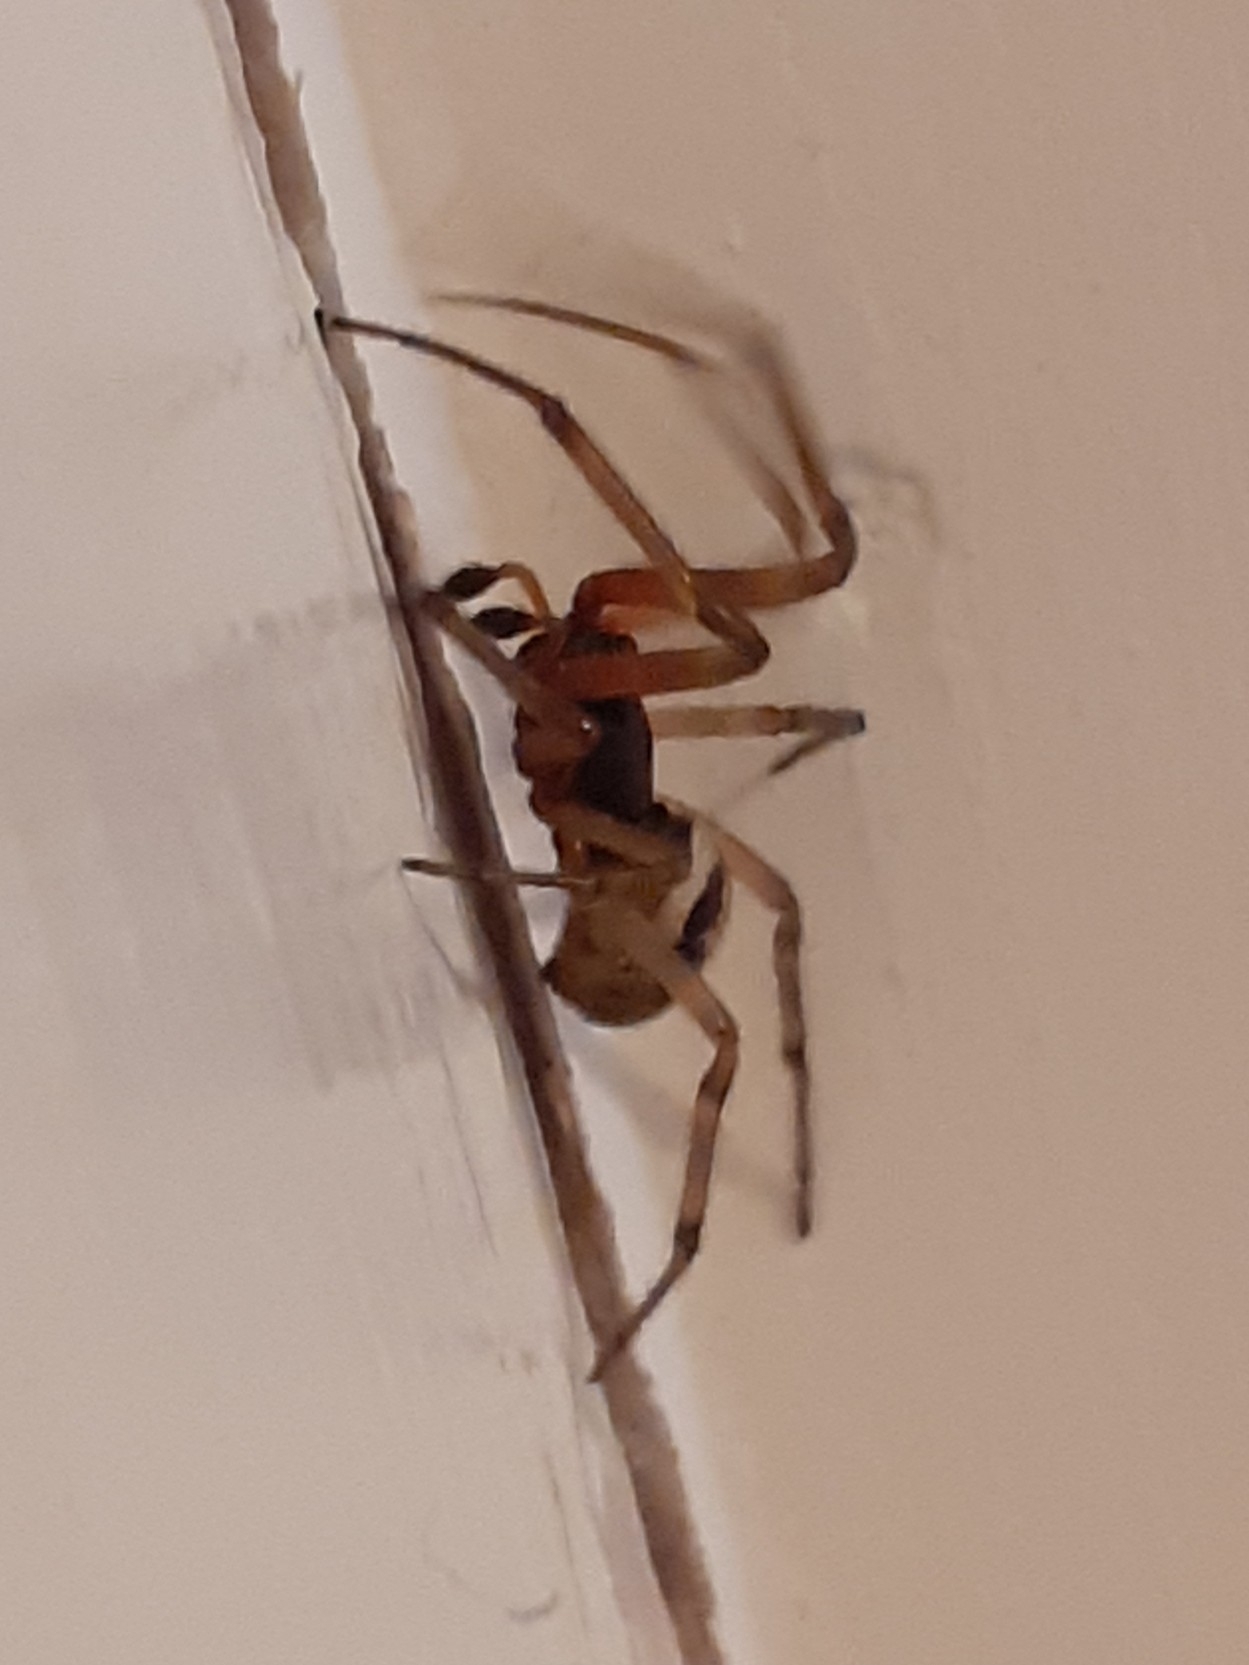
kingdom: Animalia
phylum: Arthropoda
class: Arachnida
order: Araneae
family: Theridiidae
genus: Steatoda
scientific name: Steatoda nobilis
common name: Cobweb weaver
